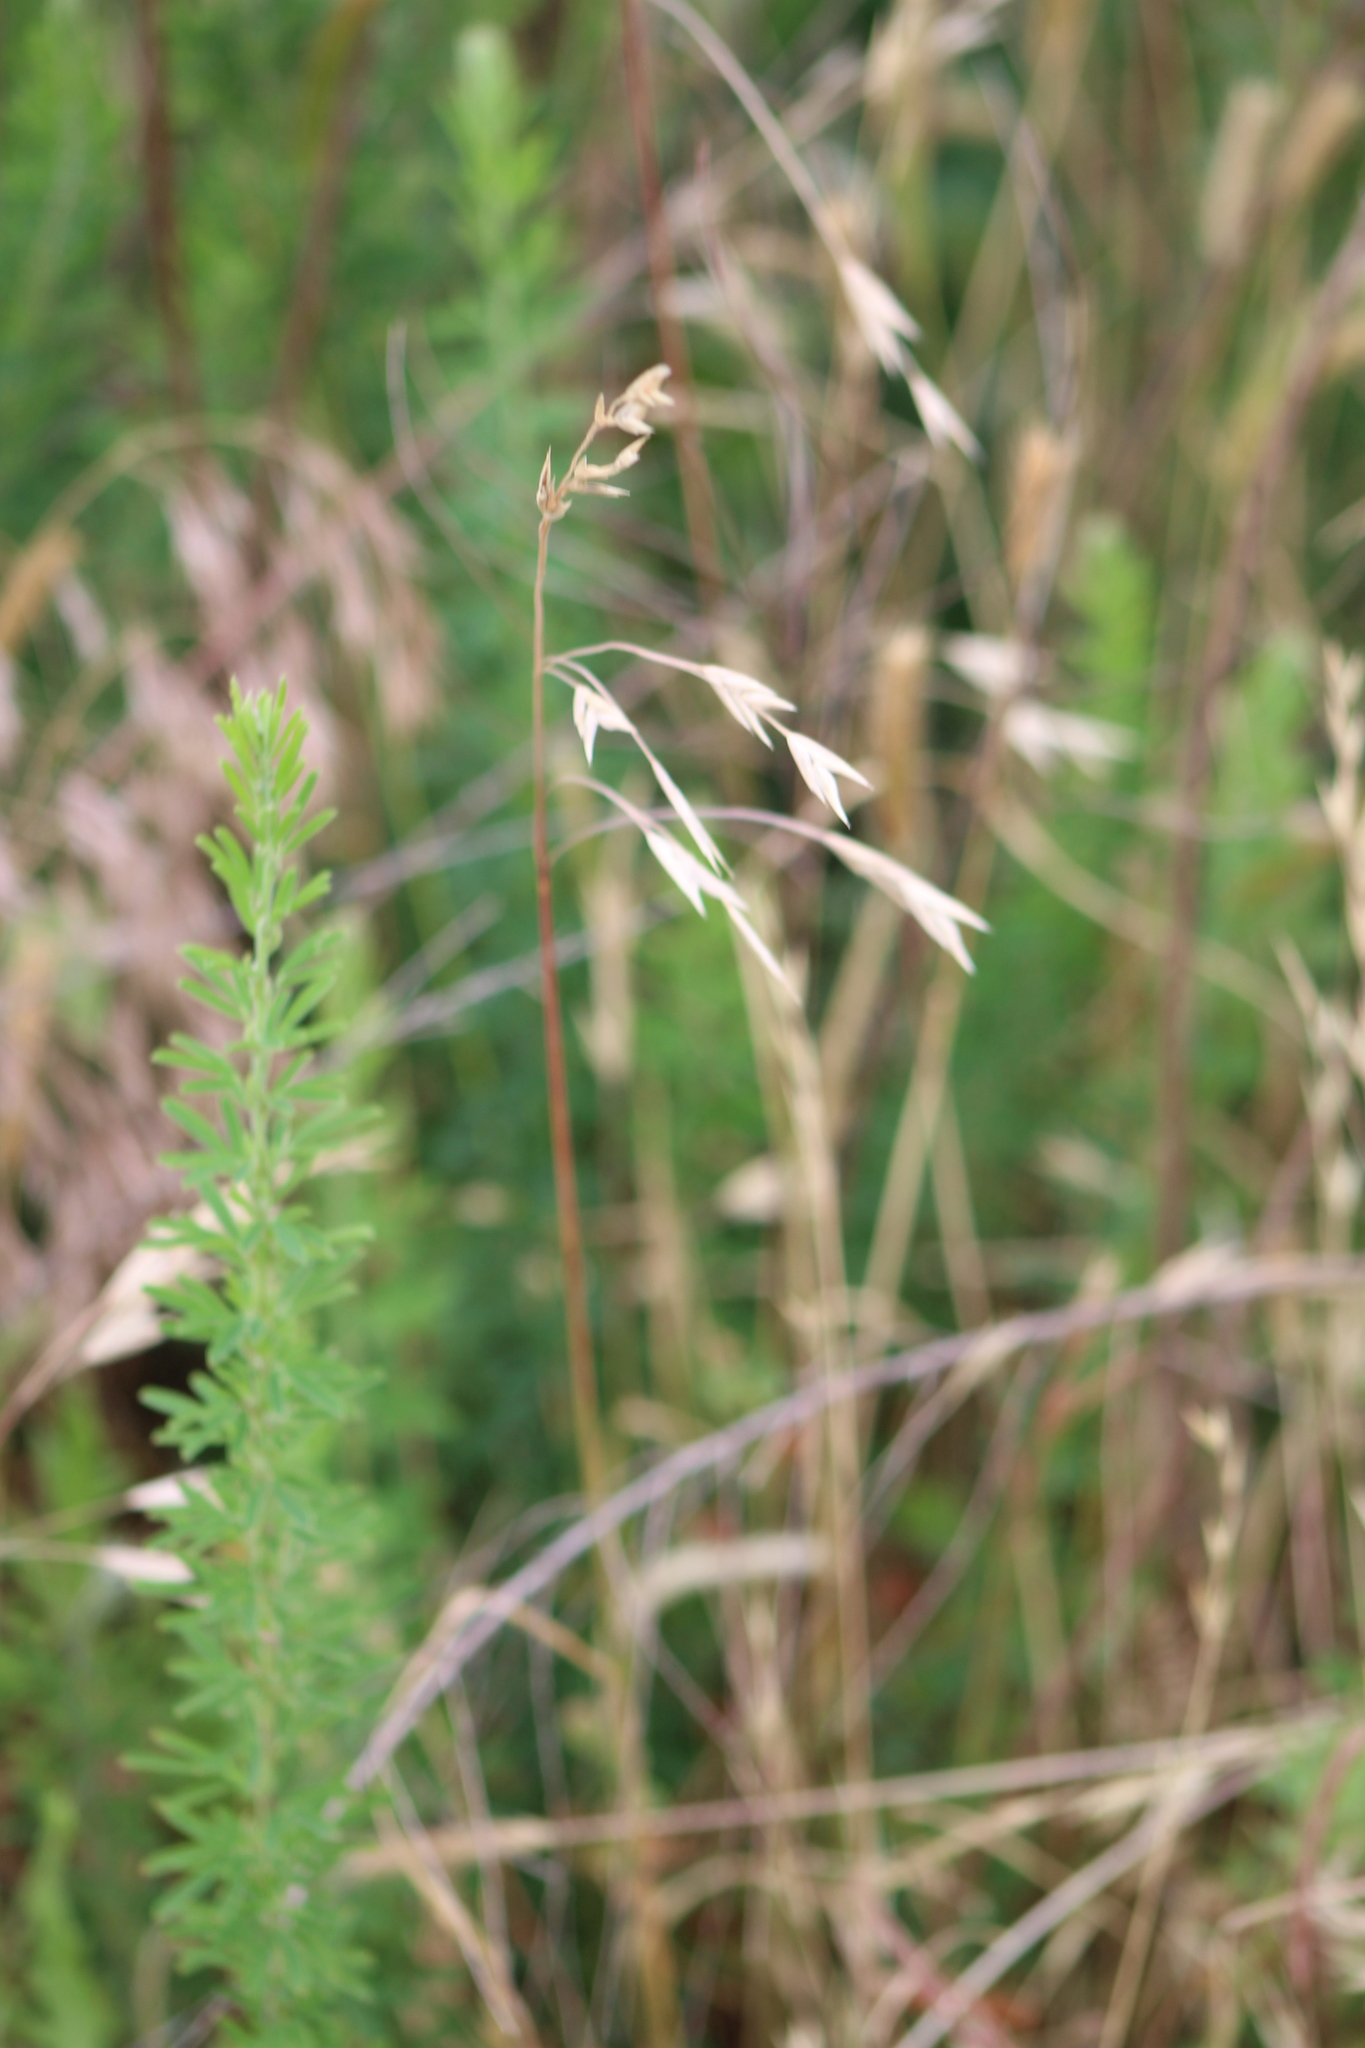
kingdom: Plantae
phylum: Tracheophyta
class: Liliopsida
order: Poales
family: Poaceae
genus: Bromus
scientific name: Bromus catharticus
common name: Rescuegrass
